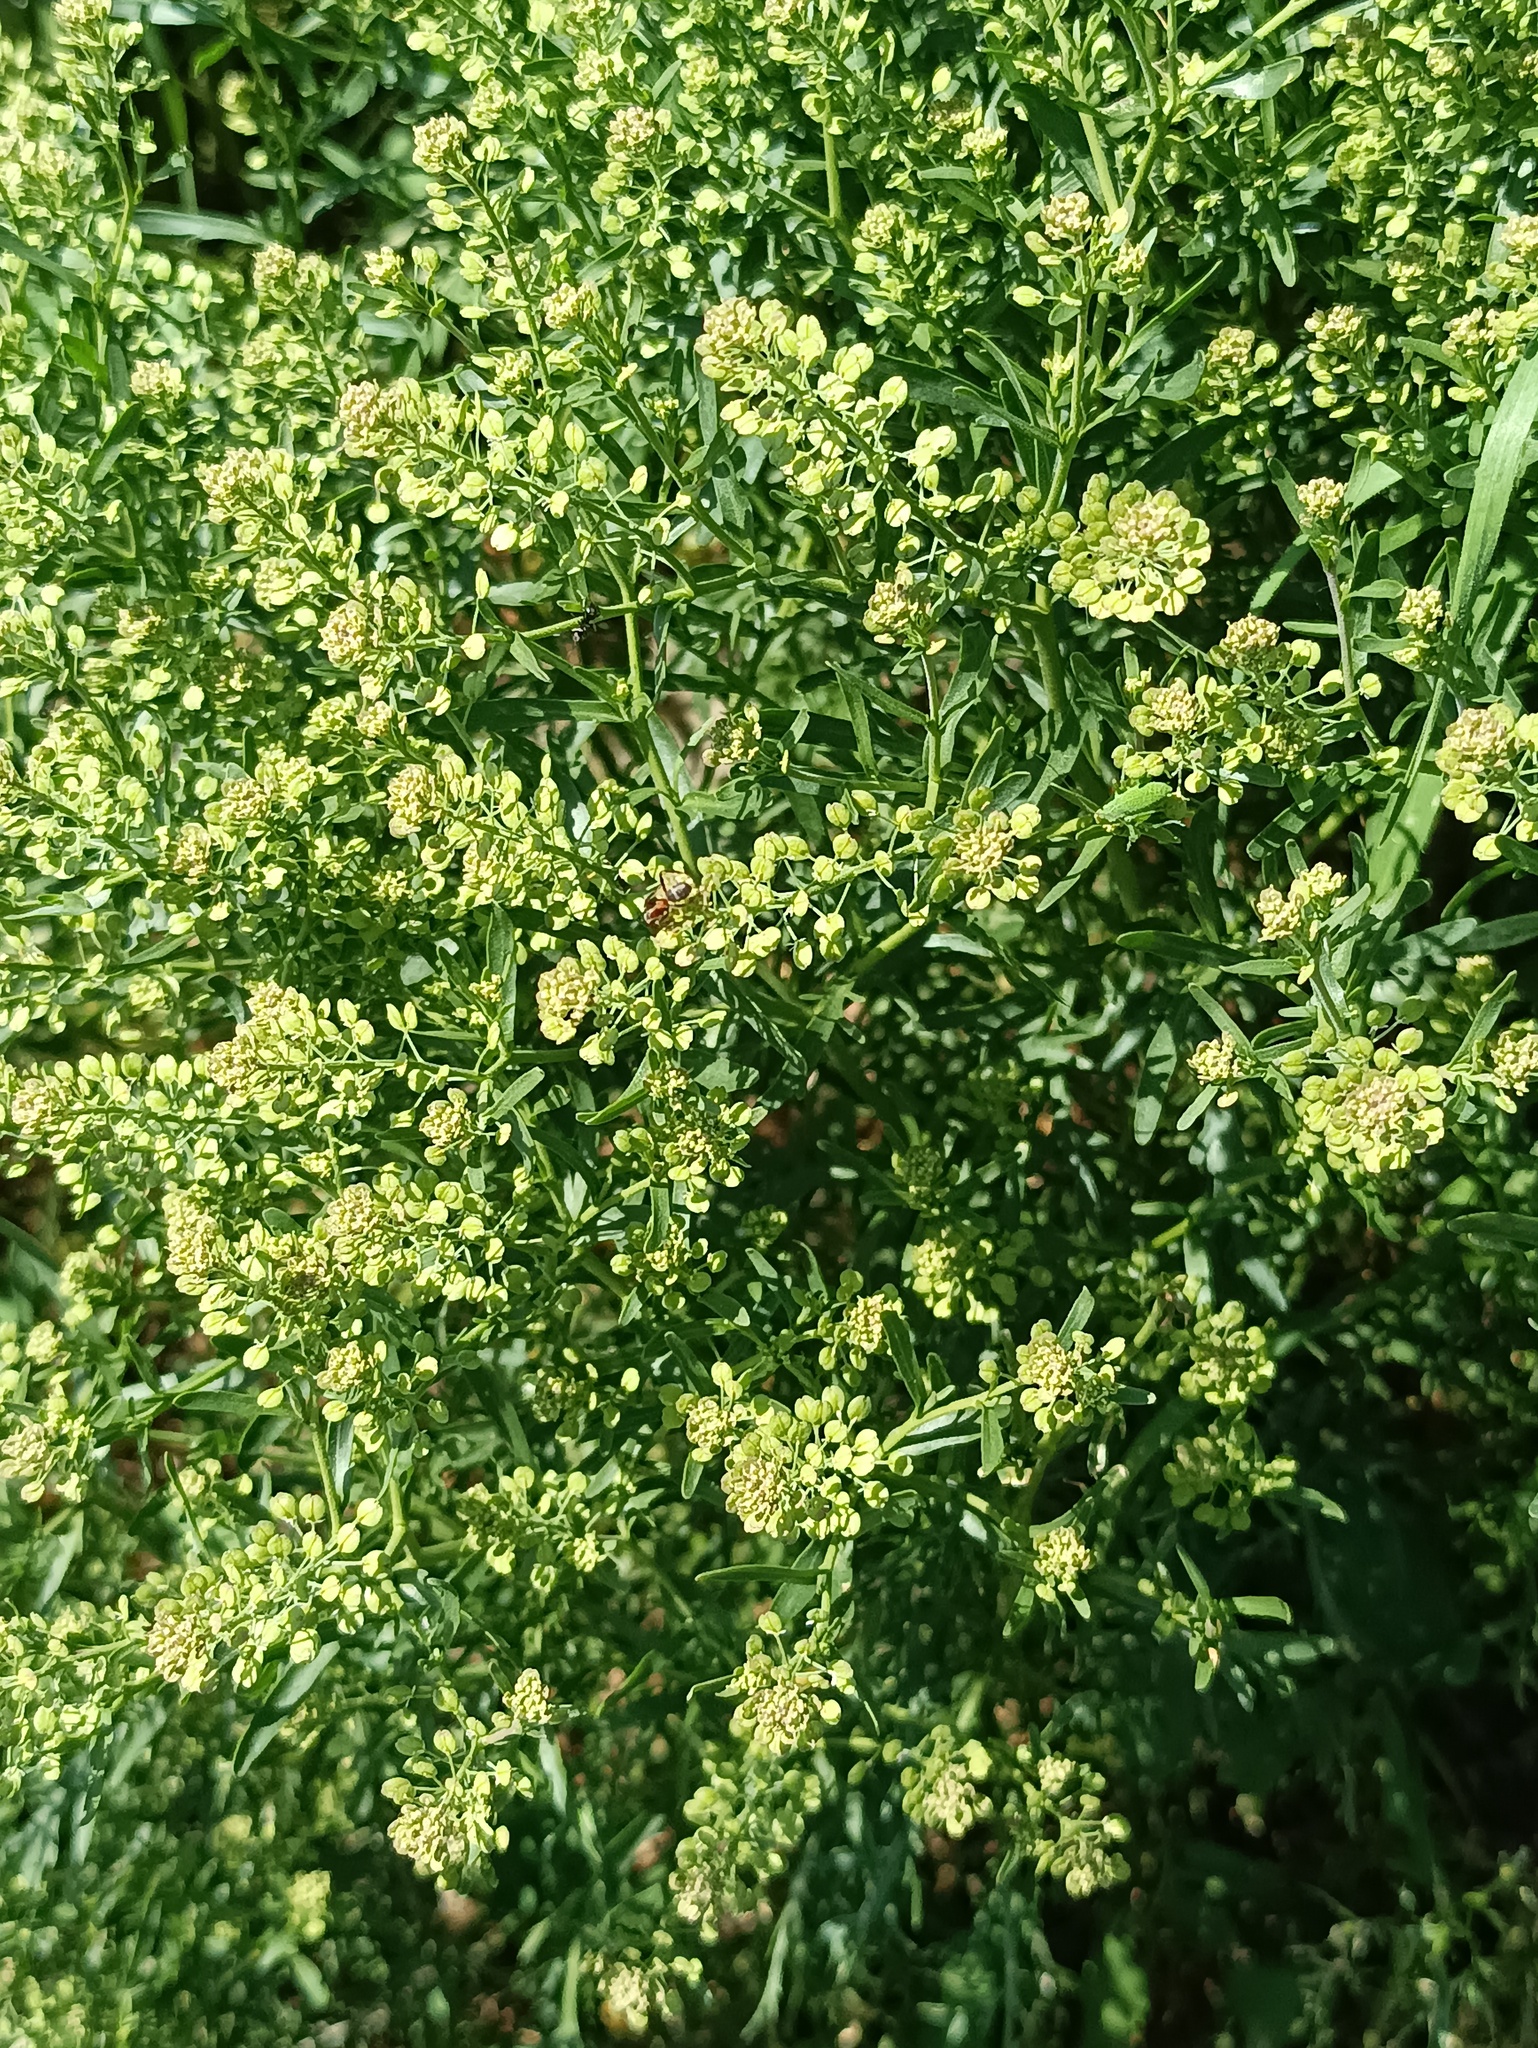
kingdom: Plantae
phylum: Tracheophyta
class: Magnoliopsida
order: Brassicales
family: Brassicaceae
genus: Lepidium
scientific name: Lepidium ruderale
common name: Narrow-leaved pepperwort
